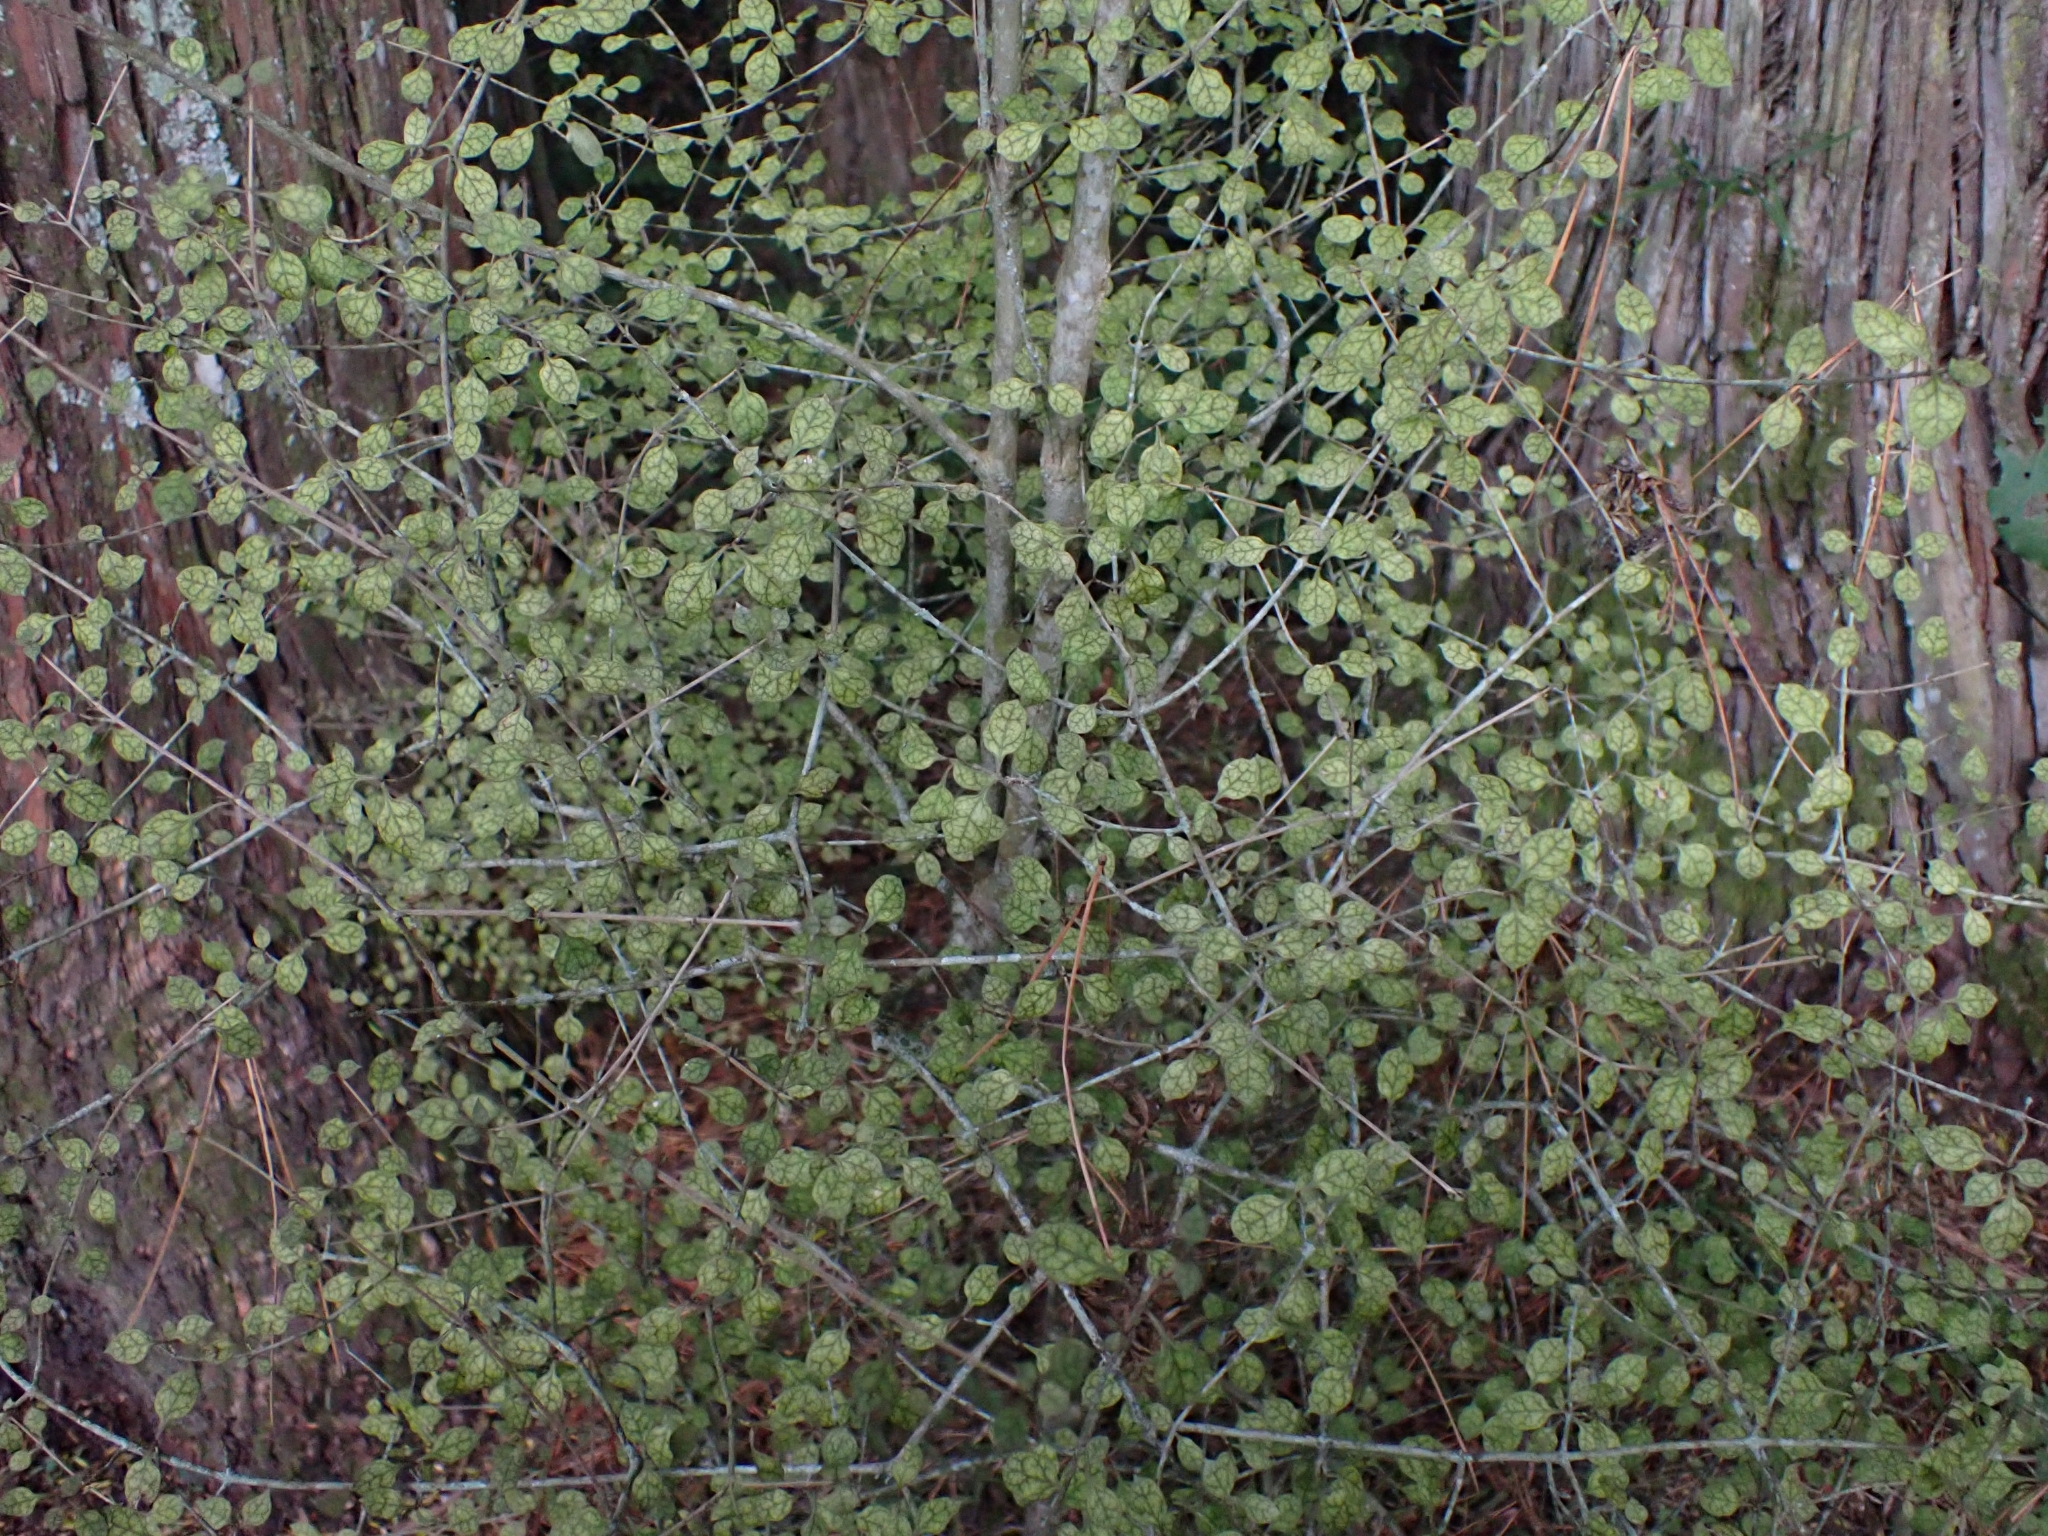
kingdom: Plantae
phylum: Tracheophyta
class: Magnoliopsida
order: Gentianales
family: Rubiaceae
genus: Coprosma
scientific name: Coprosma areolata
